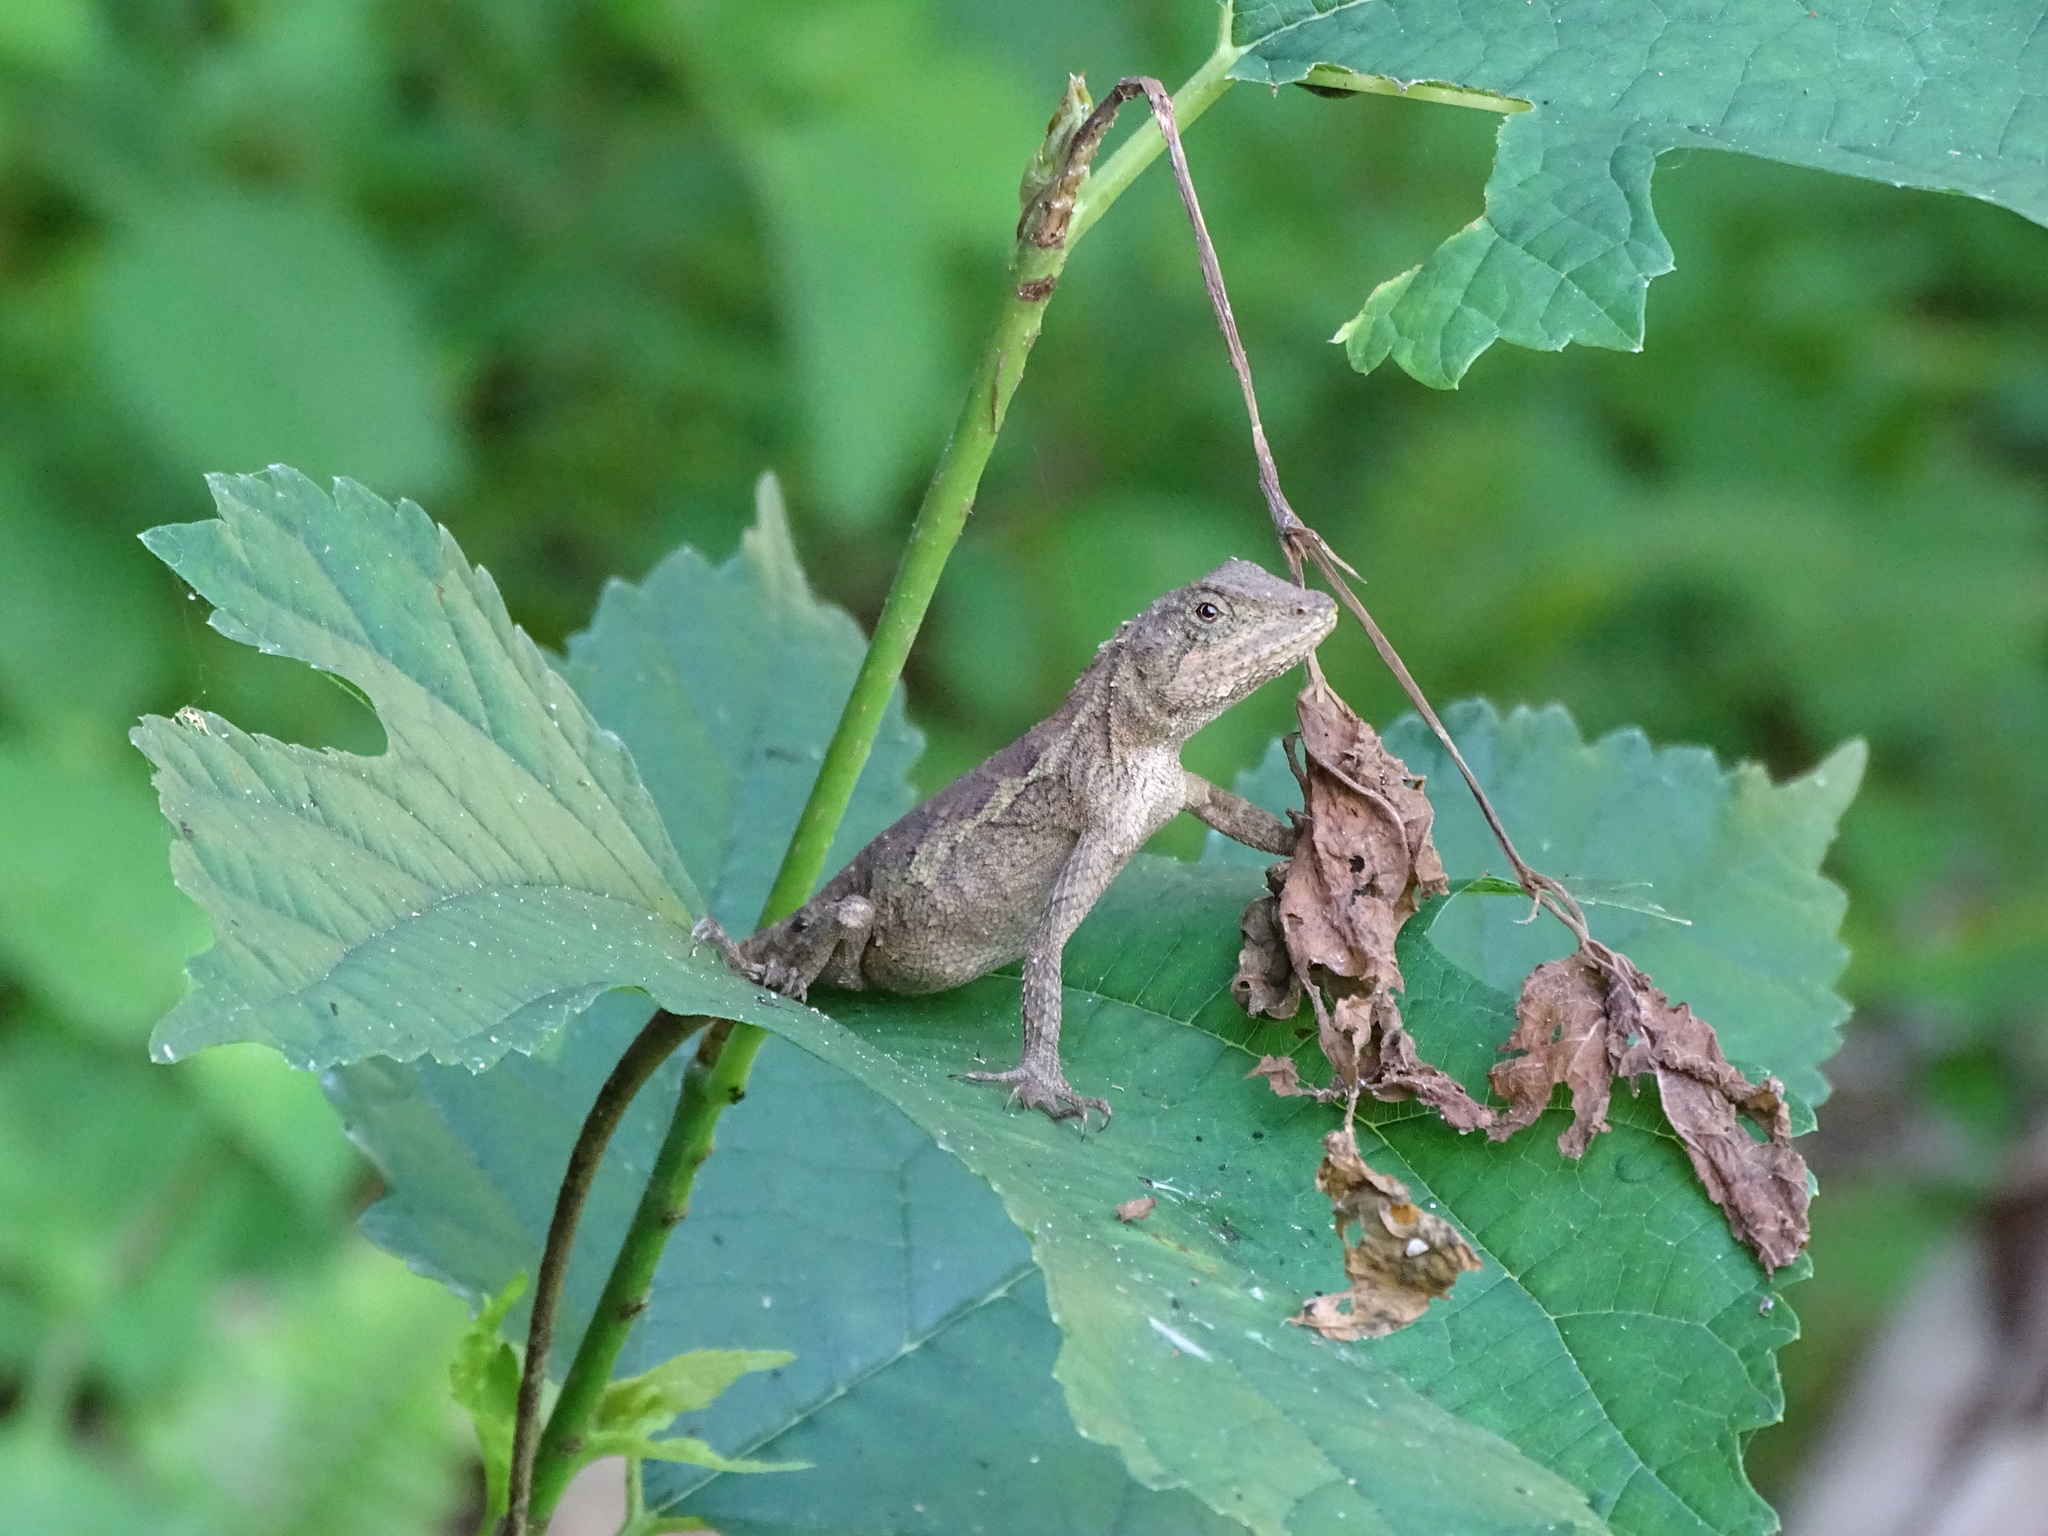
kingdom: Animalia
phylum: Chordata
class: Squamata
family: Agamidae
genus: Diploderma
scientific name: Diploderma swinhonis
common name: Taiwan japalure
